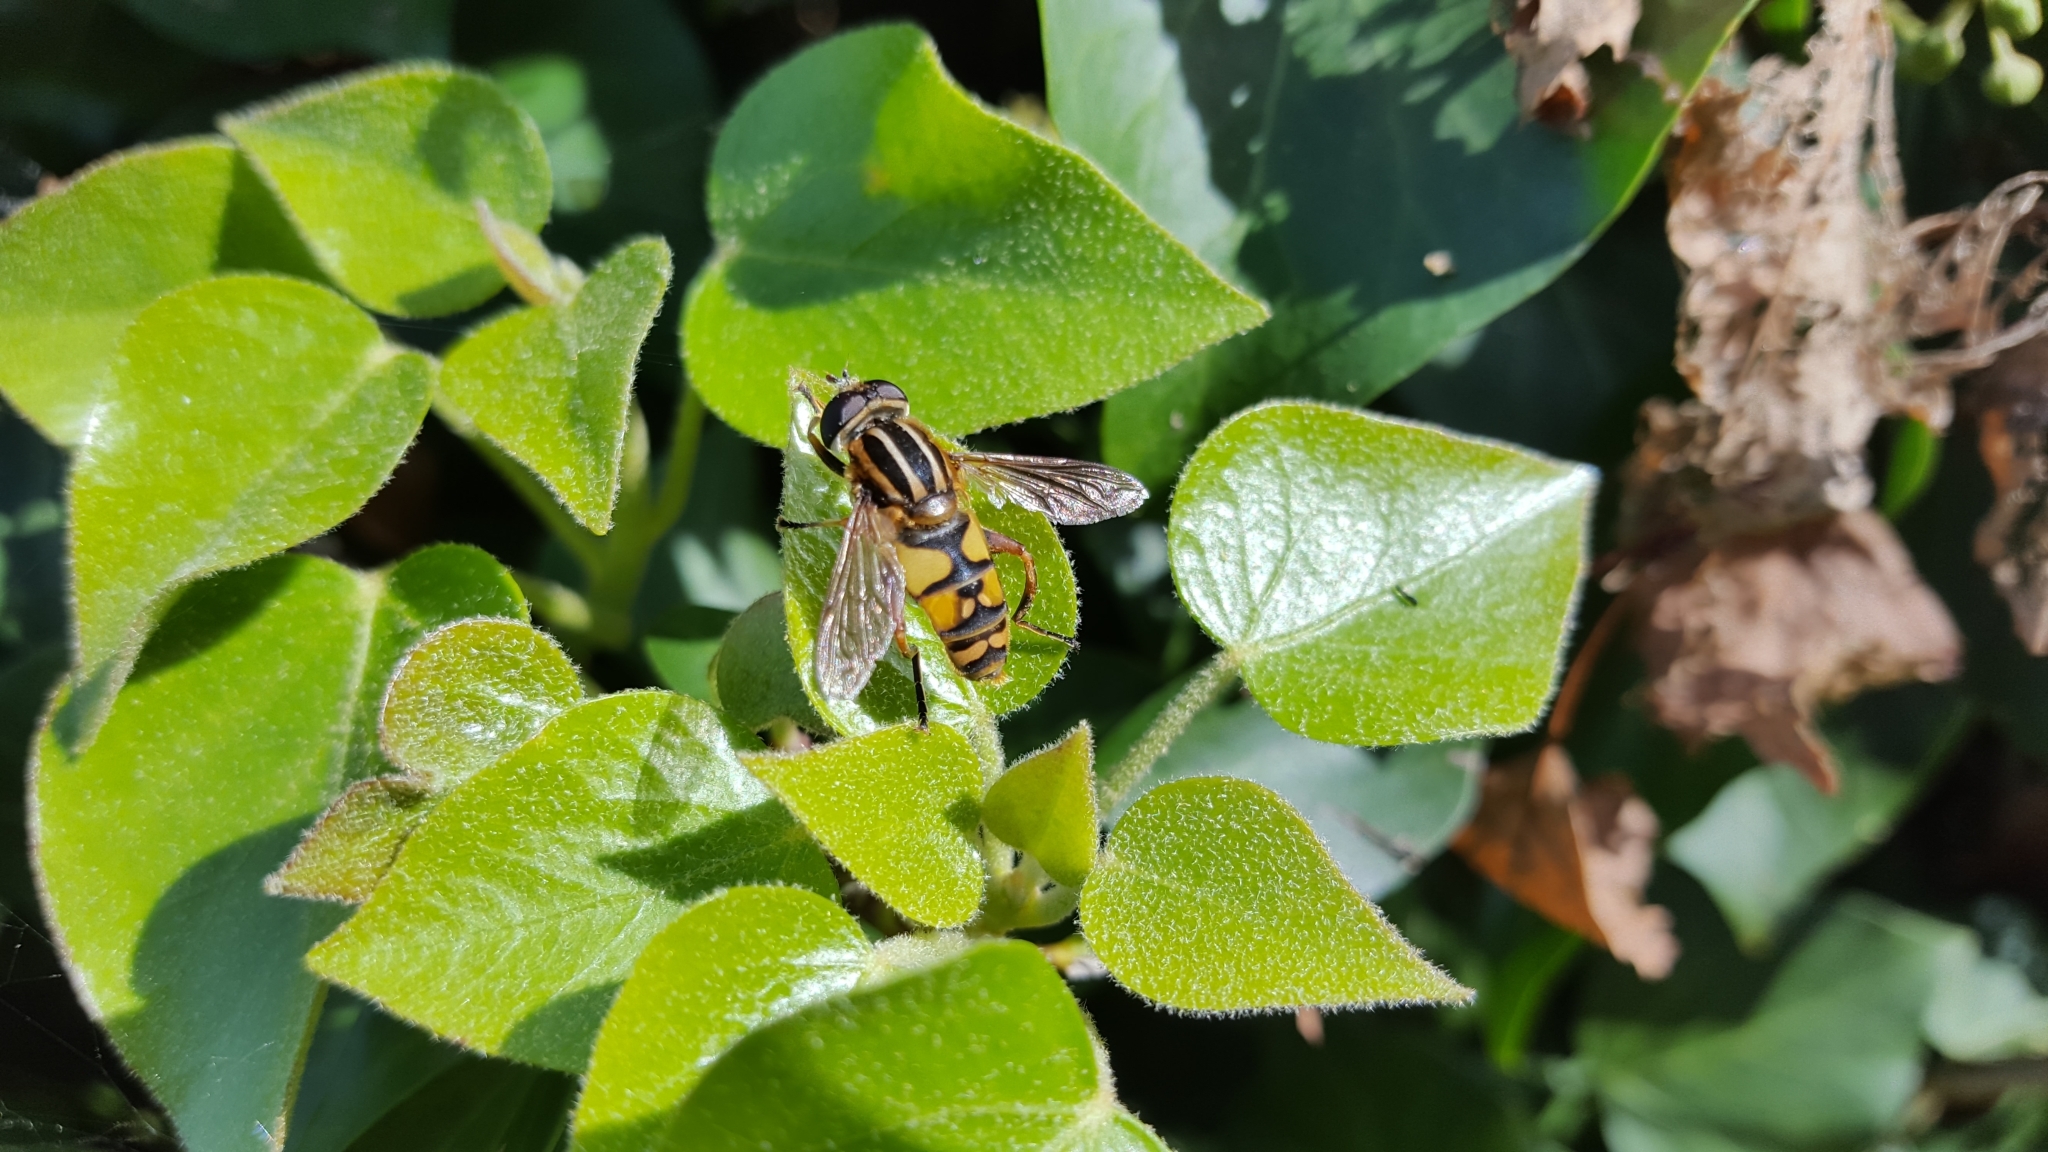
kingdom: Animalia
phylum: Arthropoda
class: Insecta
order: Diptera
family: Syrphidae
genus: Helophilus
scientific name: Helophilus pendulus
